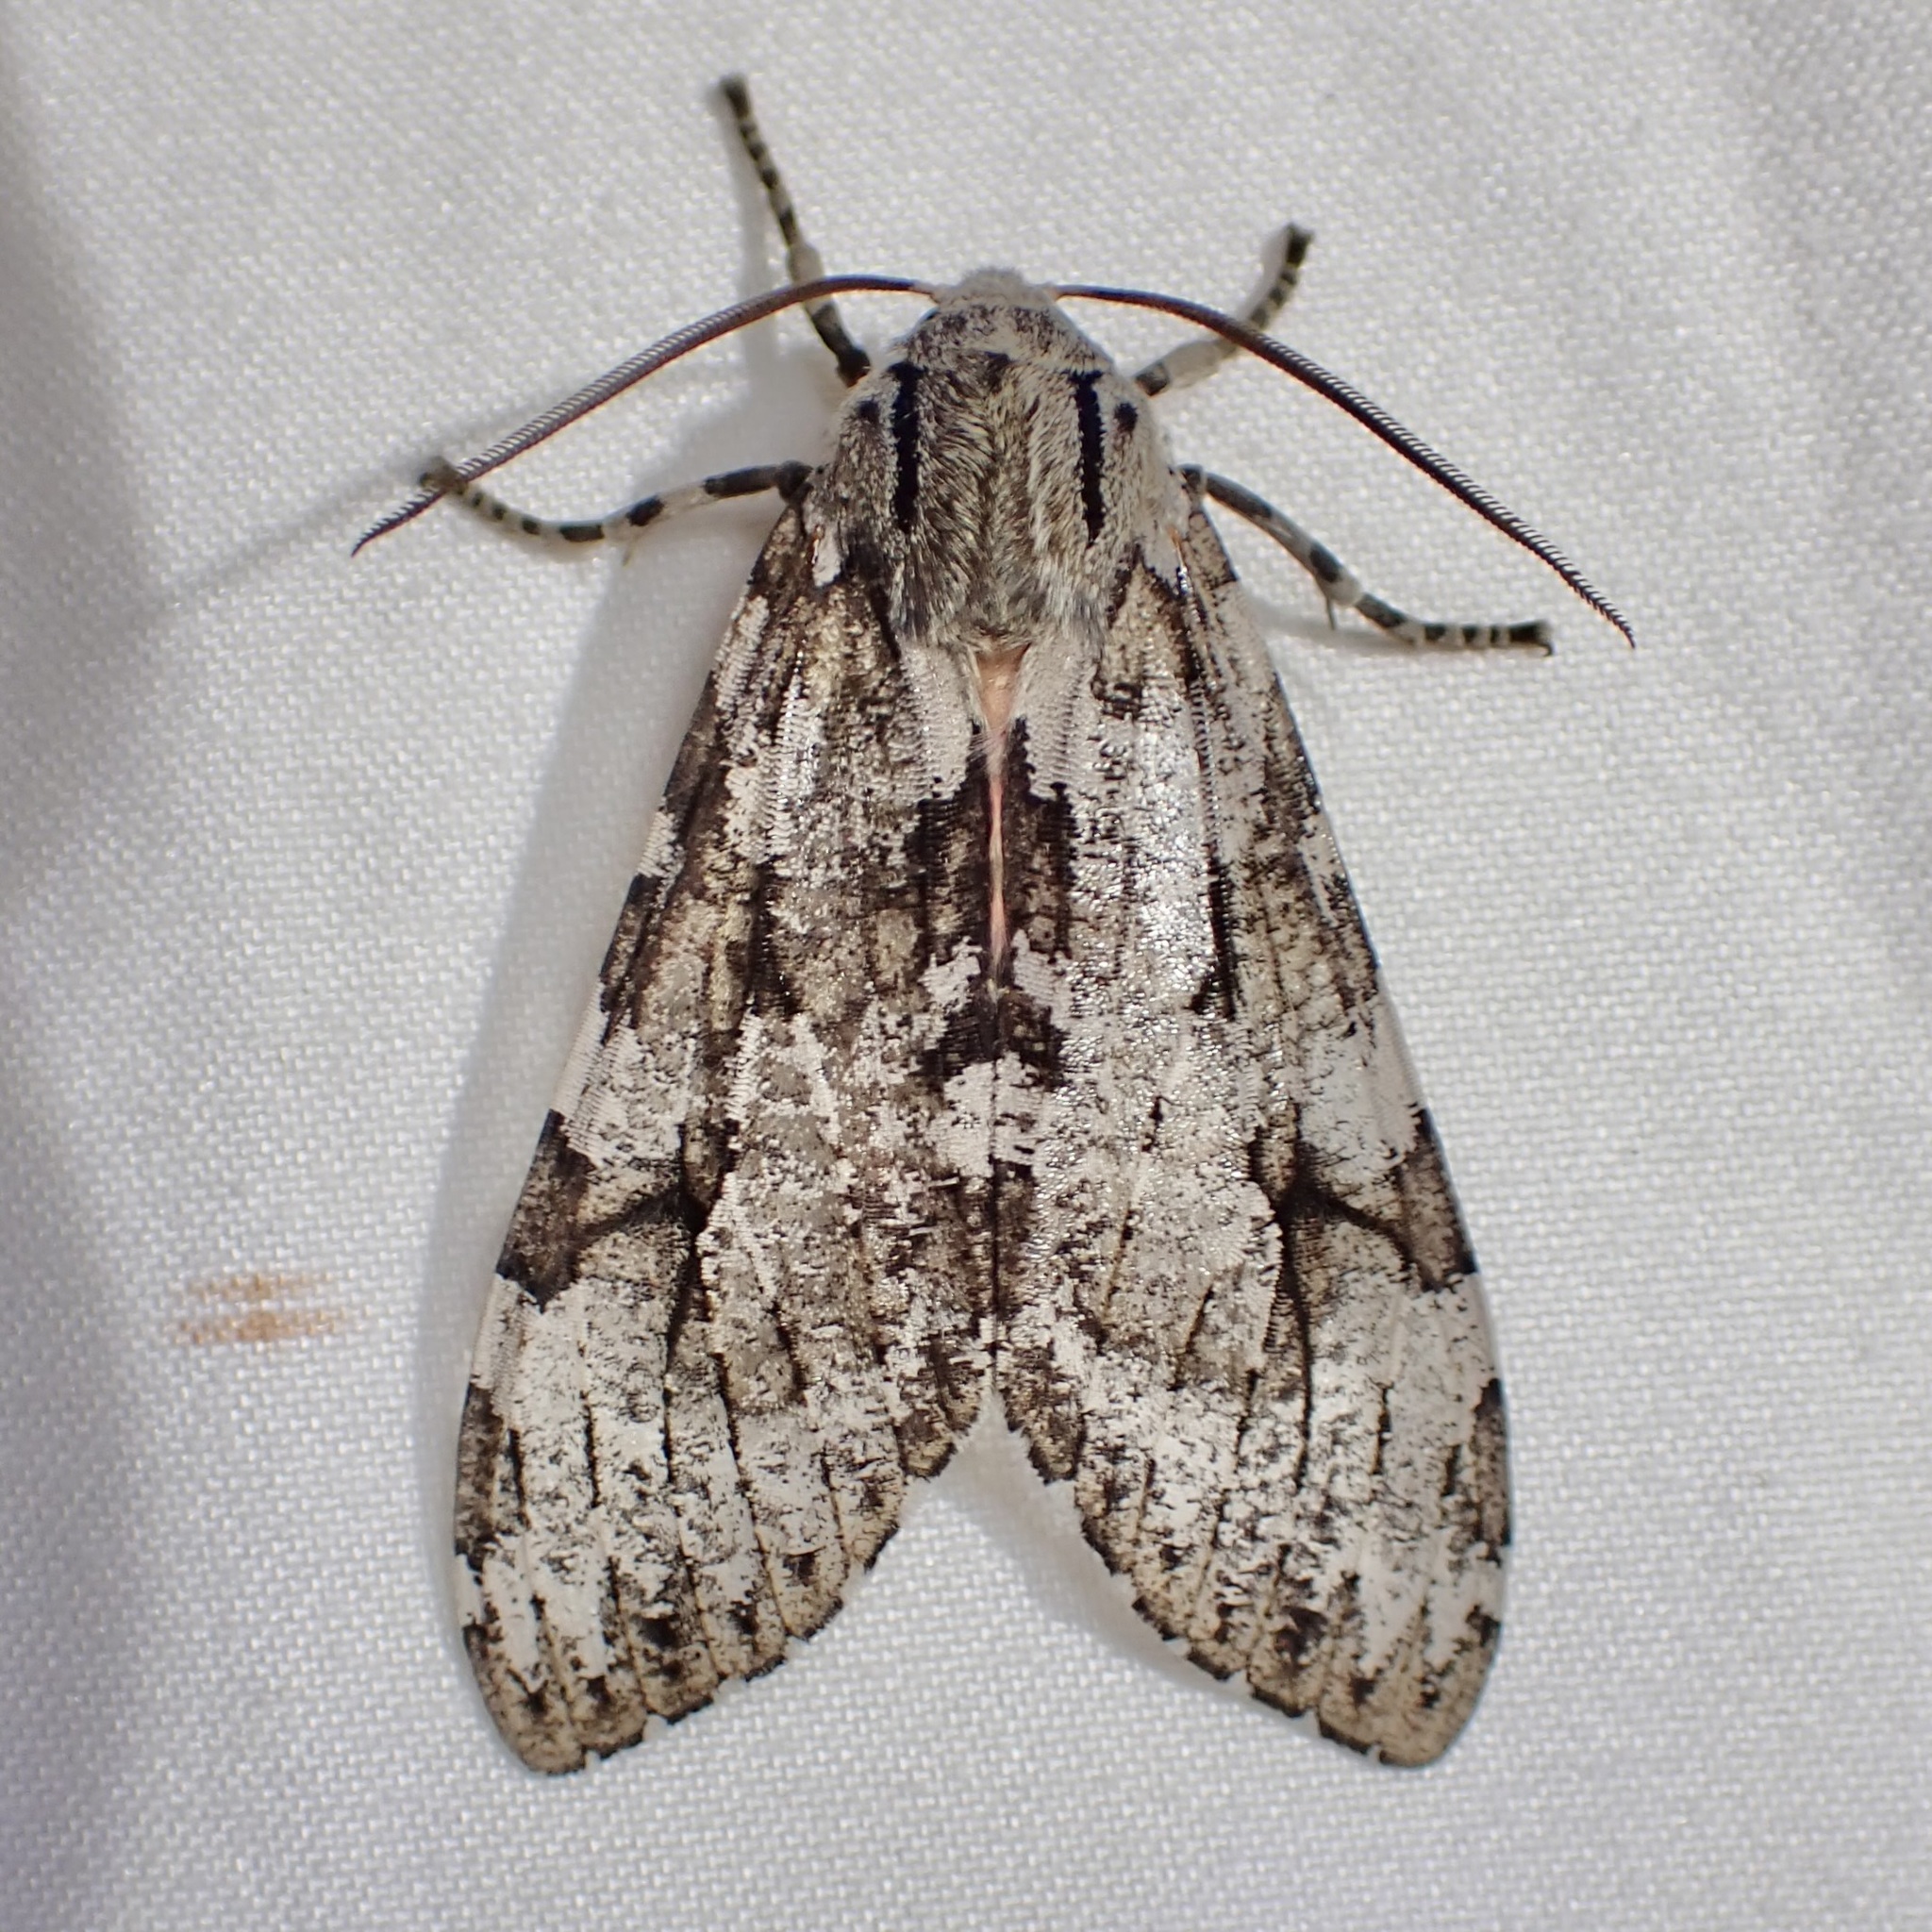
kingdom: Animalia
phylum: Arthropoda
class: Insecta
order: Lepidoptera
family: Erebidae
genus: Hemihyalea
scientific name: Hemihyalea splendens
